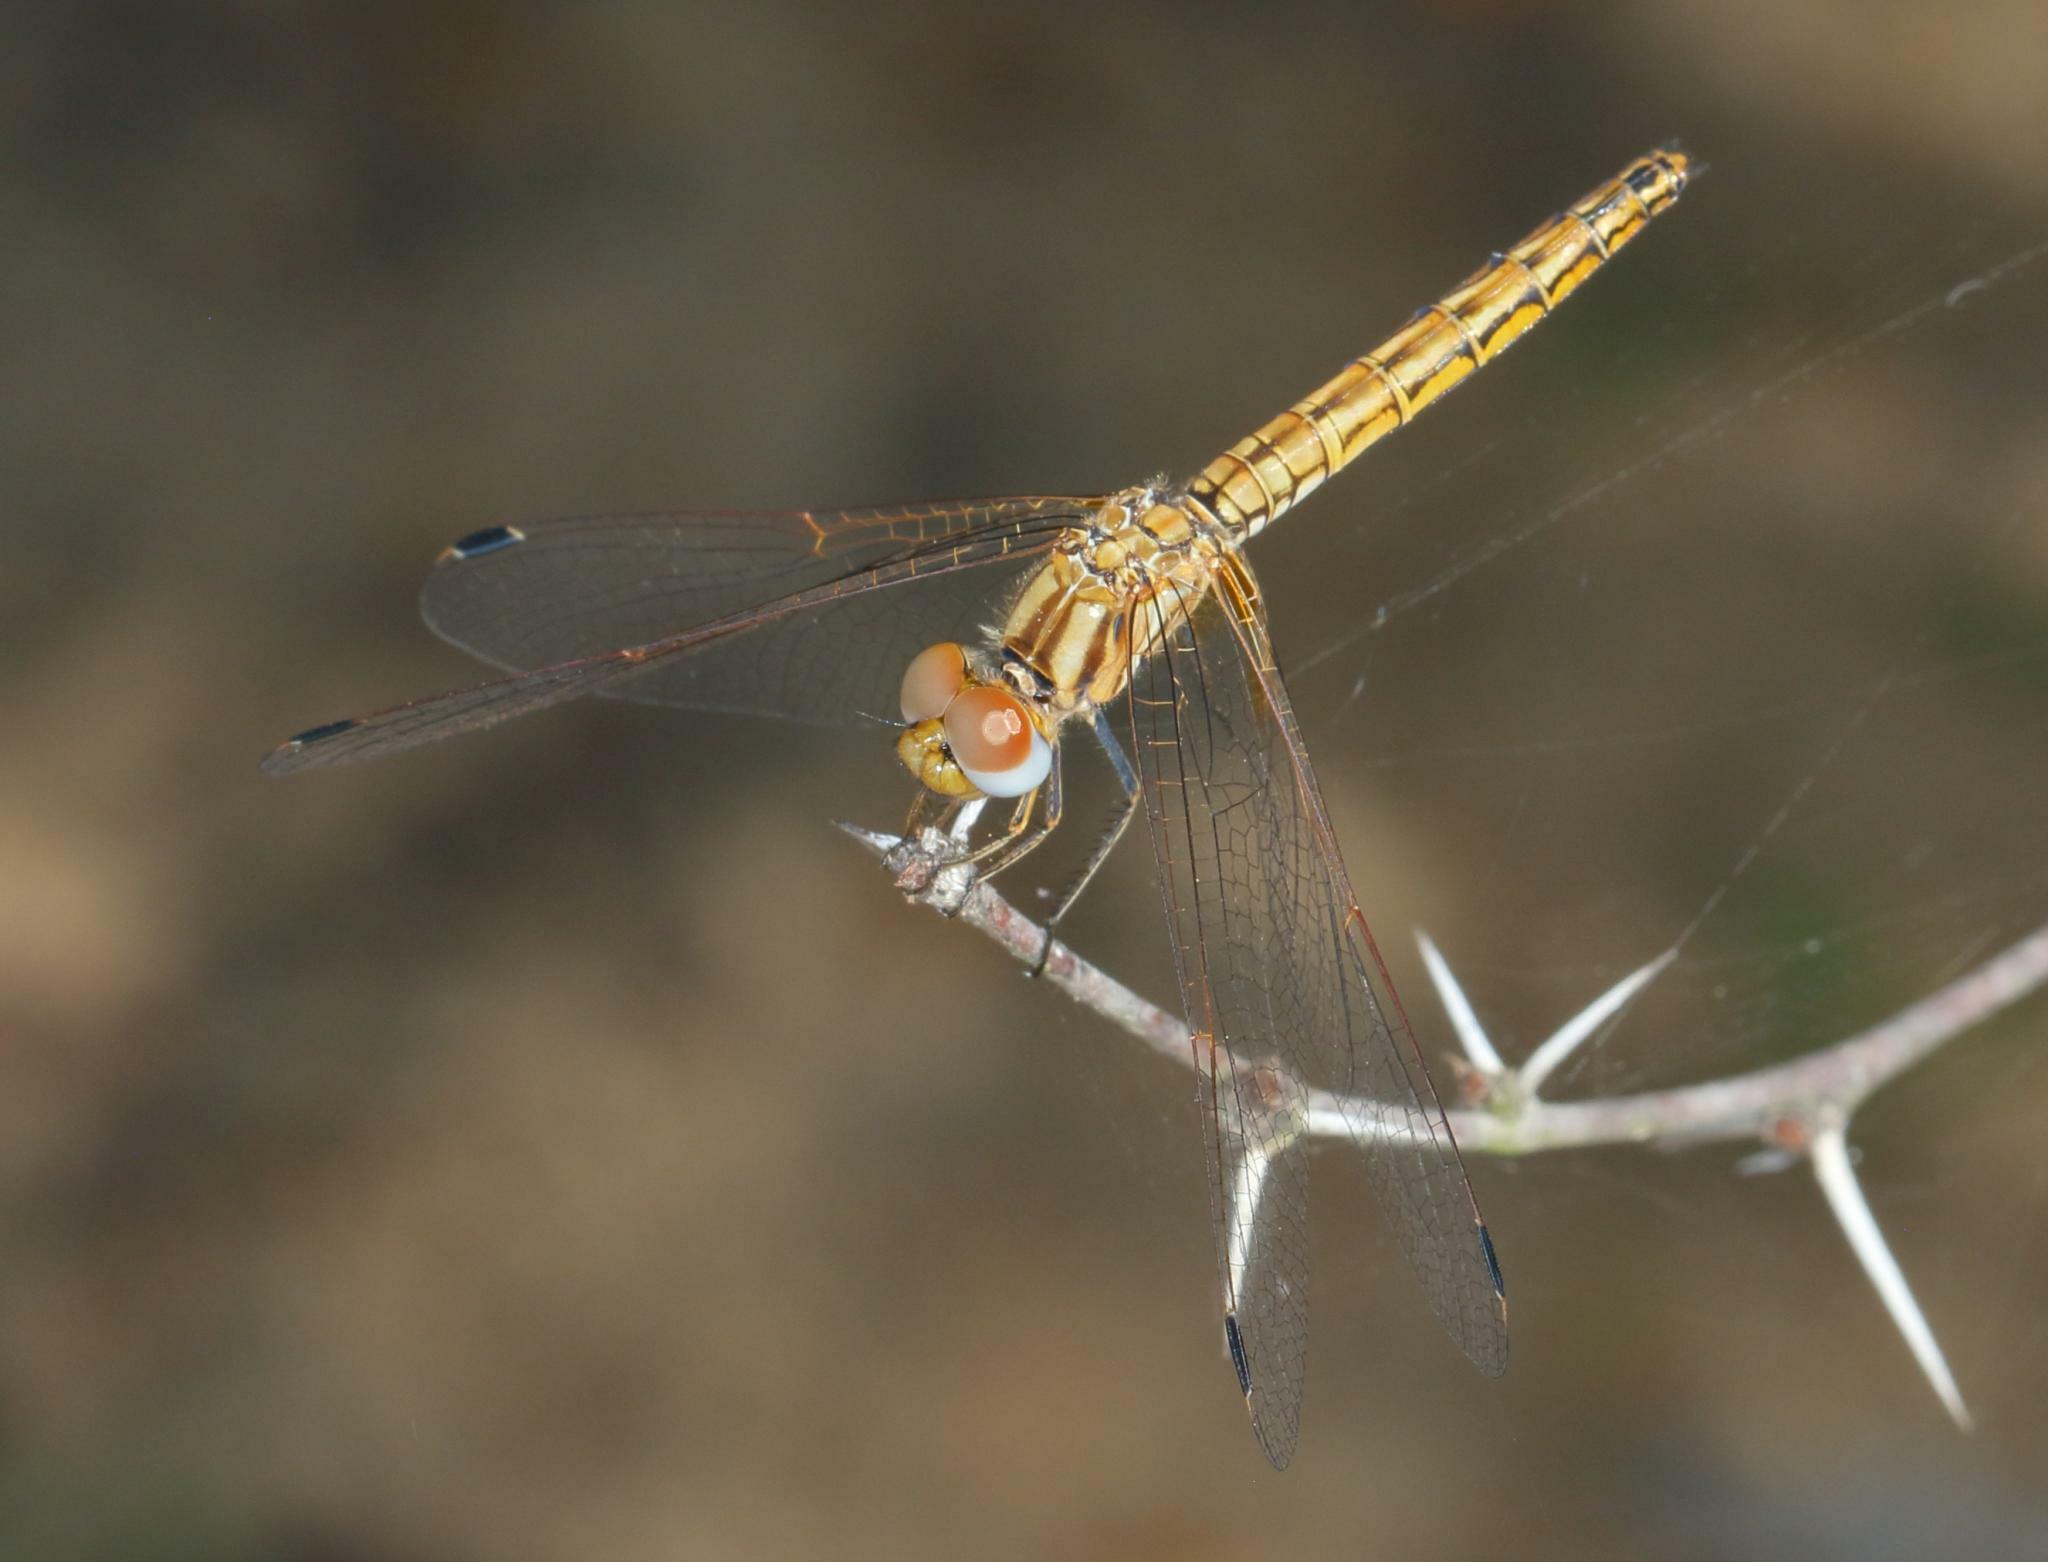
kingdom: Animalia
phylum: Arthropoda
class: Insecta
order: Odonata
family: Libellulidae
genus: Trithemis
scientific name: Trithemis kirbyi
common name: Kirby's dropwing
